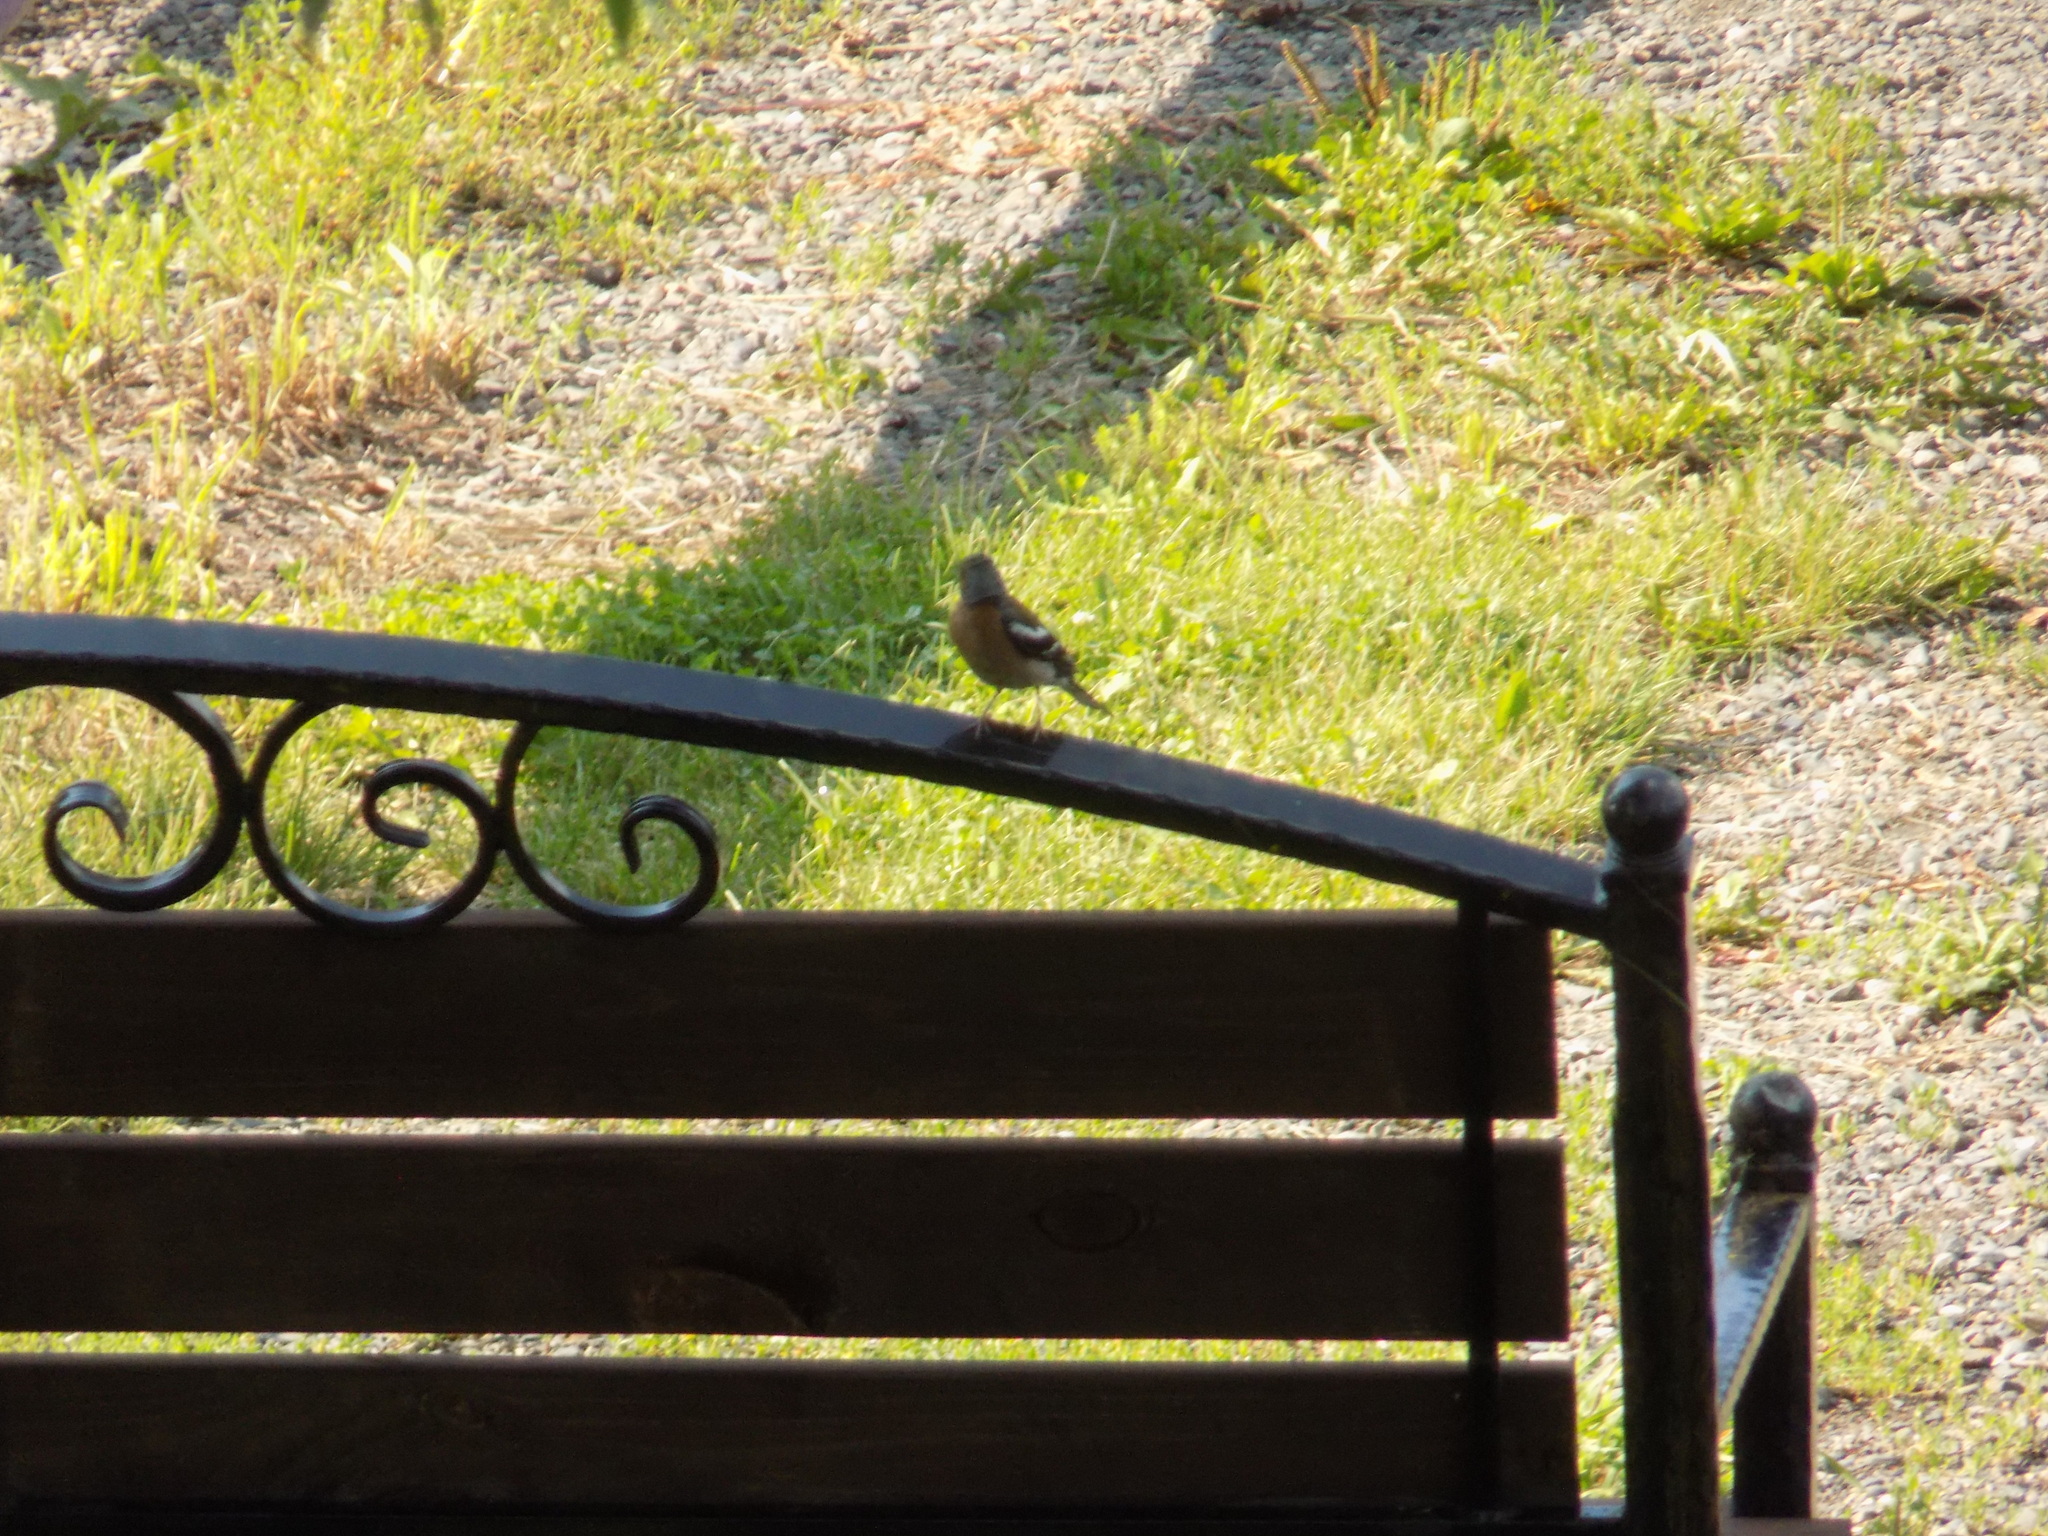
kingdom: Animalia
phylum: Chordata
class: Aves
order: Passeriformes
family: Fringillidae
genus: Fringilla
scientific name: Fringilla coelebs
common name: Common chaffinch
